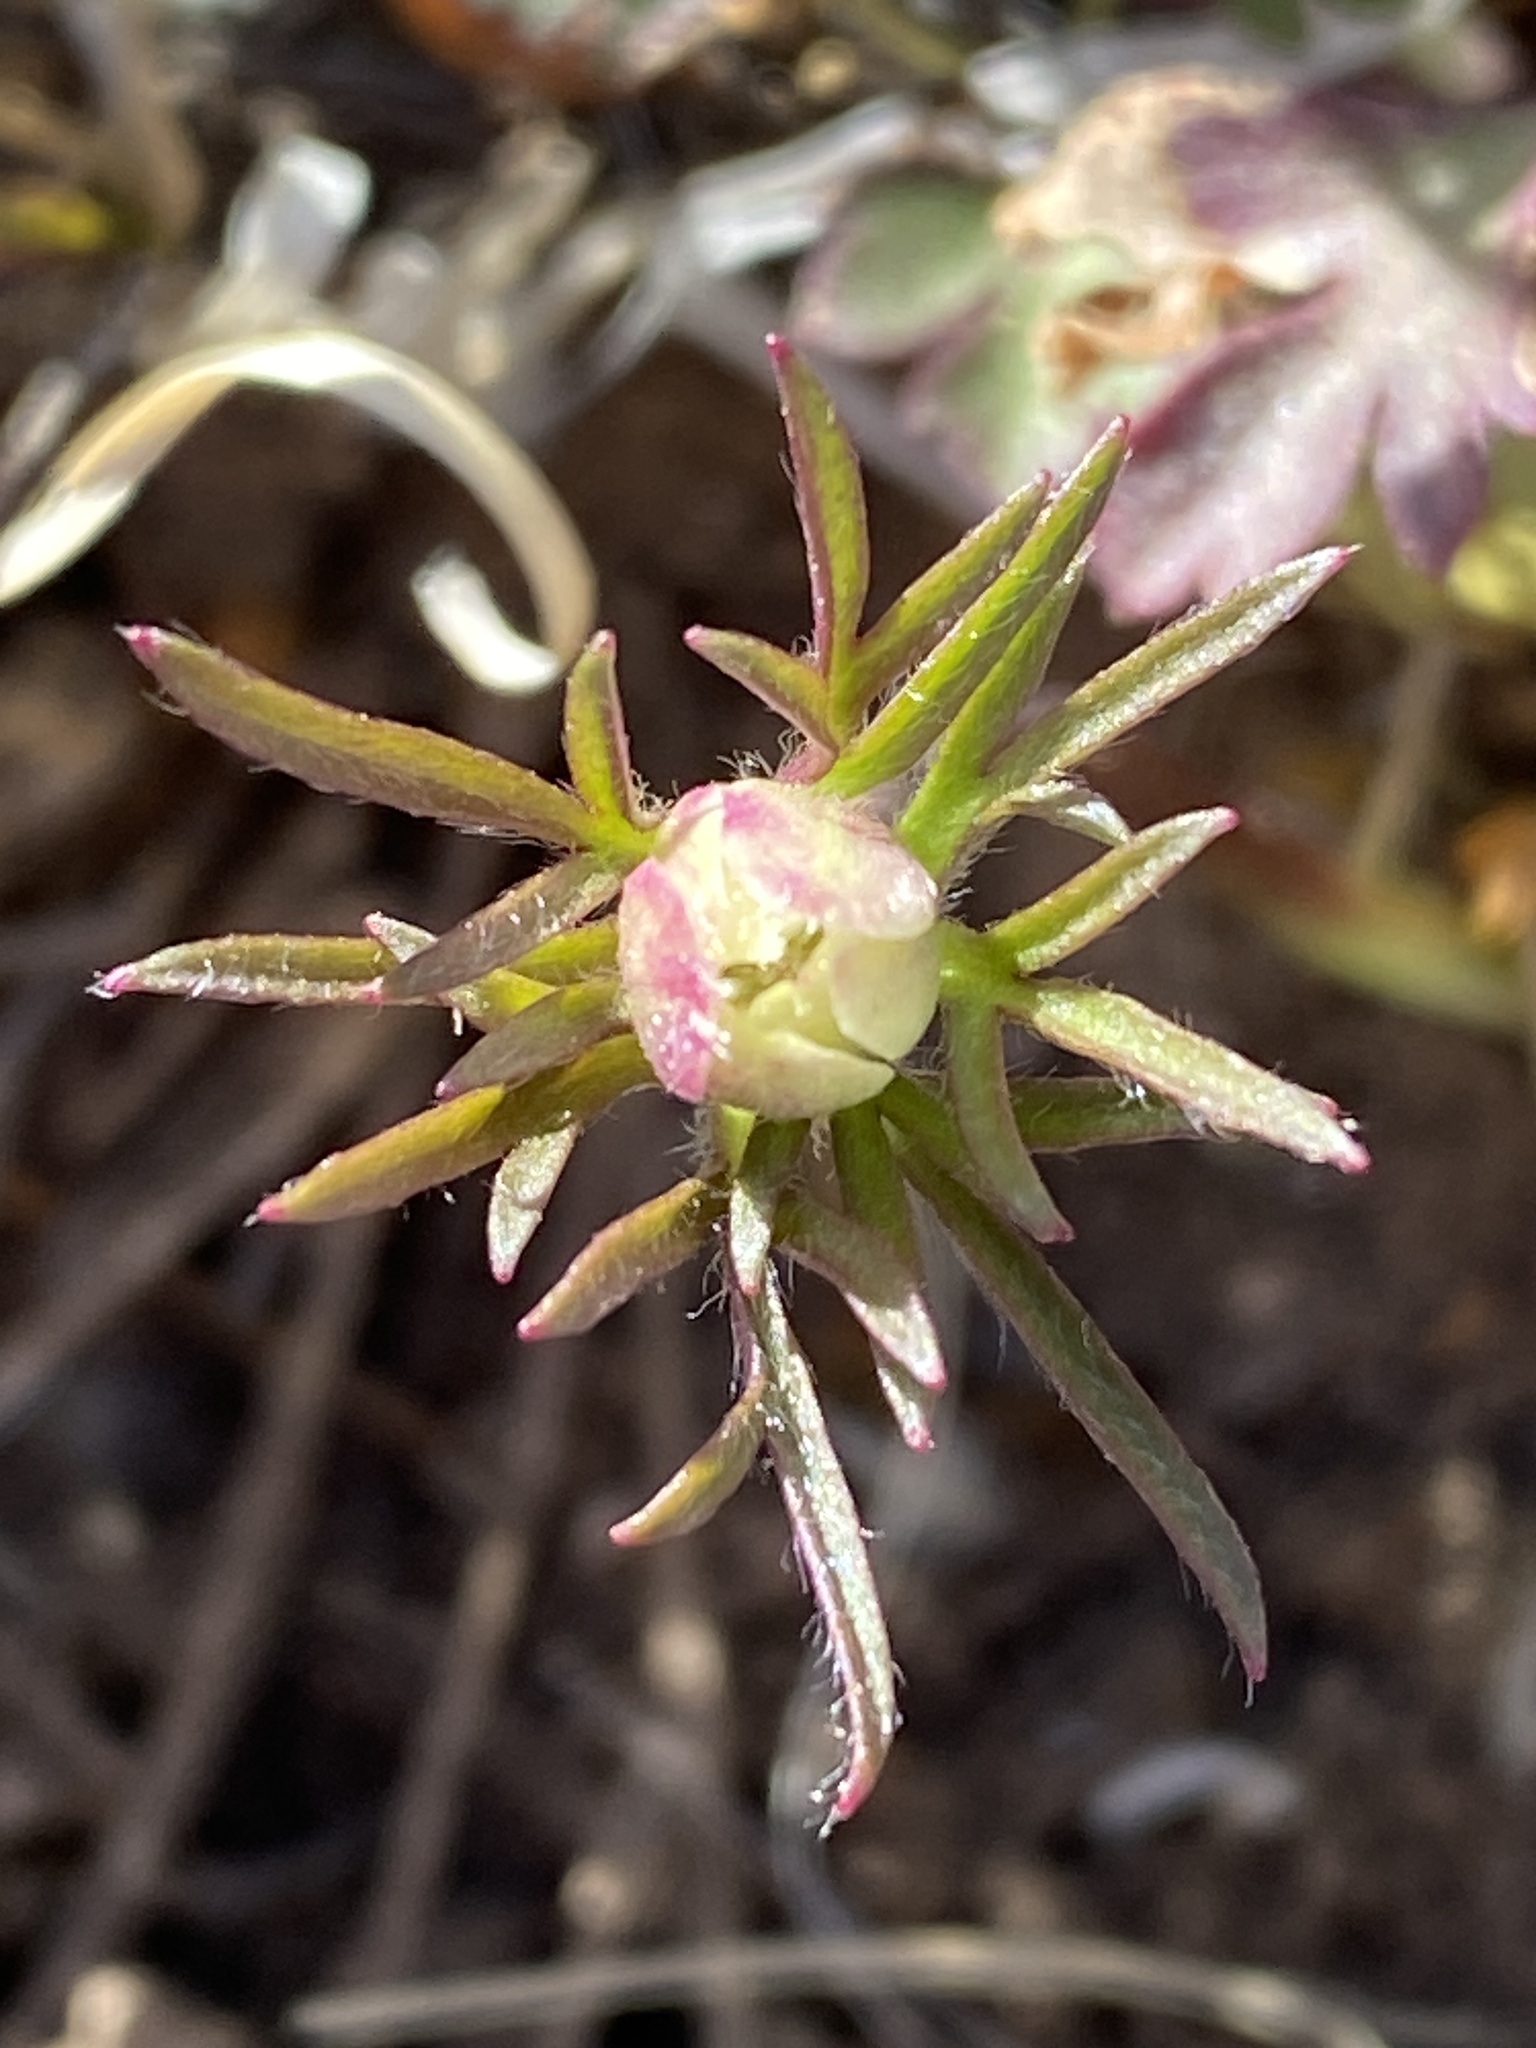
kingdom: Plantae
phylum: Tracheophyta
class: Magnoliopsida
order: Ranunculales
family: Ranunculaceae
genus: Anemone
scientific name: Anemone tuberosa
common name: Desert anemone
